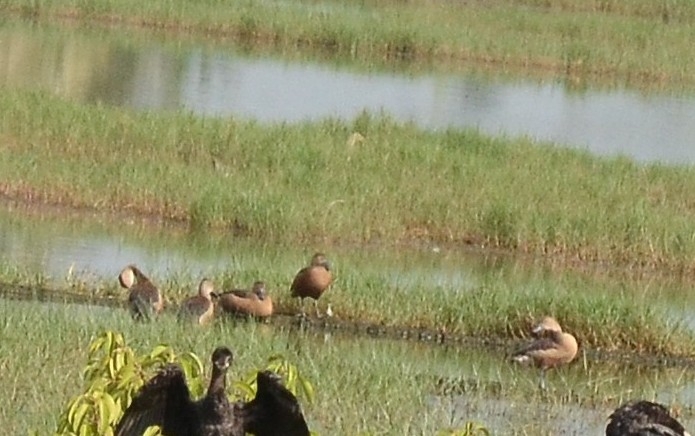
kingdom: Animalia
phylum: Chordata
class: Aves
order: Anseriformes
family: Anatidae
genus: Dendrocygna
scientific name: Dendrocygna javanica
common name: Lesser whistling-duck
